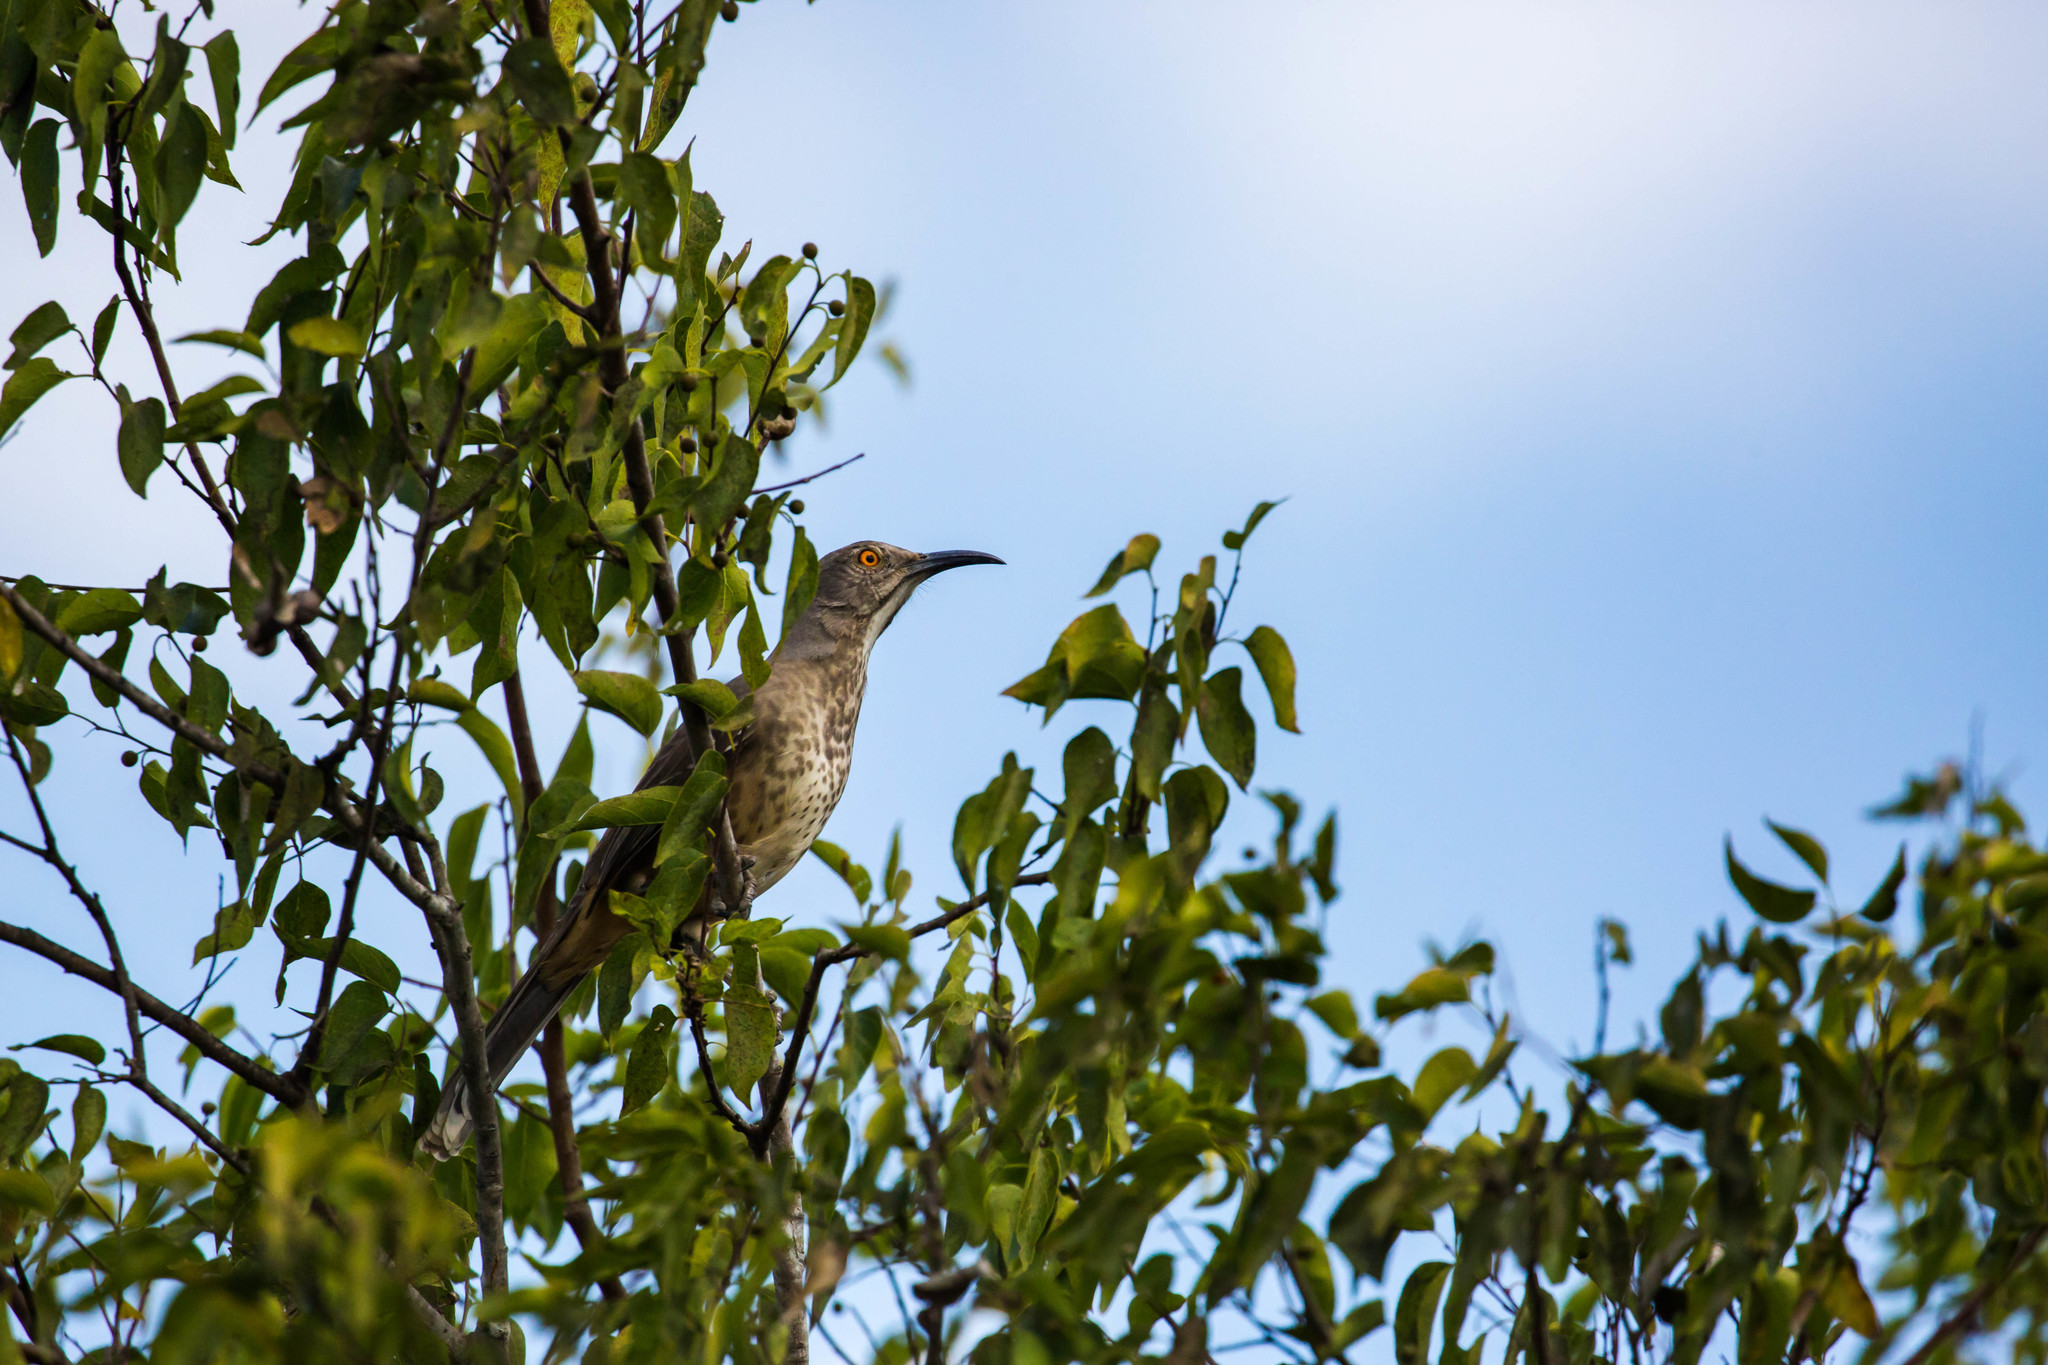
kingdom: Animalia
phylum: Chordata
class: Aves
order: Passeriformes
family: Mimidae
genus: Toxostoma
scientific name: Toxostoma curvirostre
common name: Curve-billed thrasher
